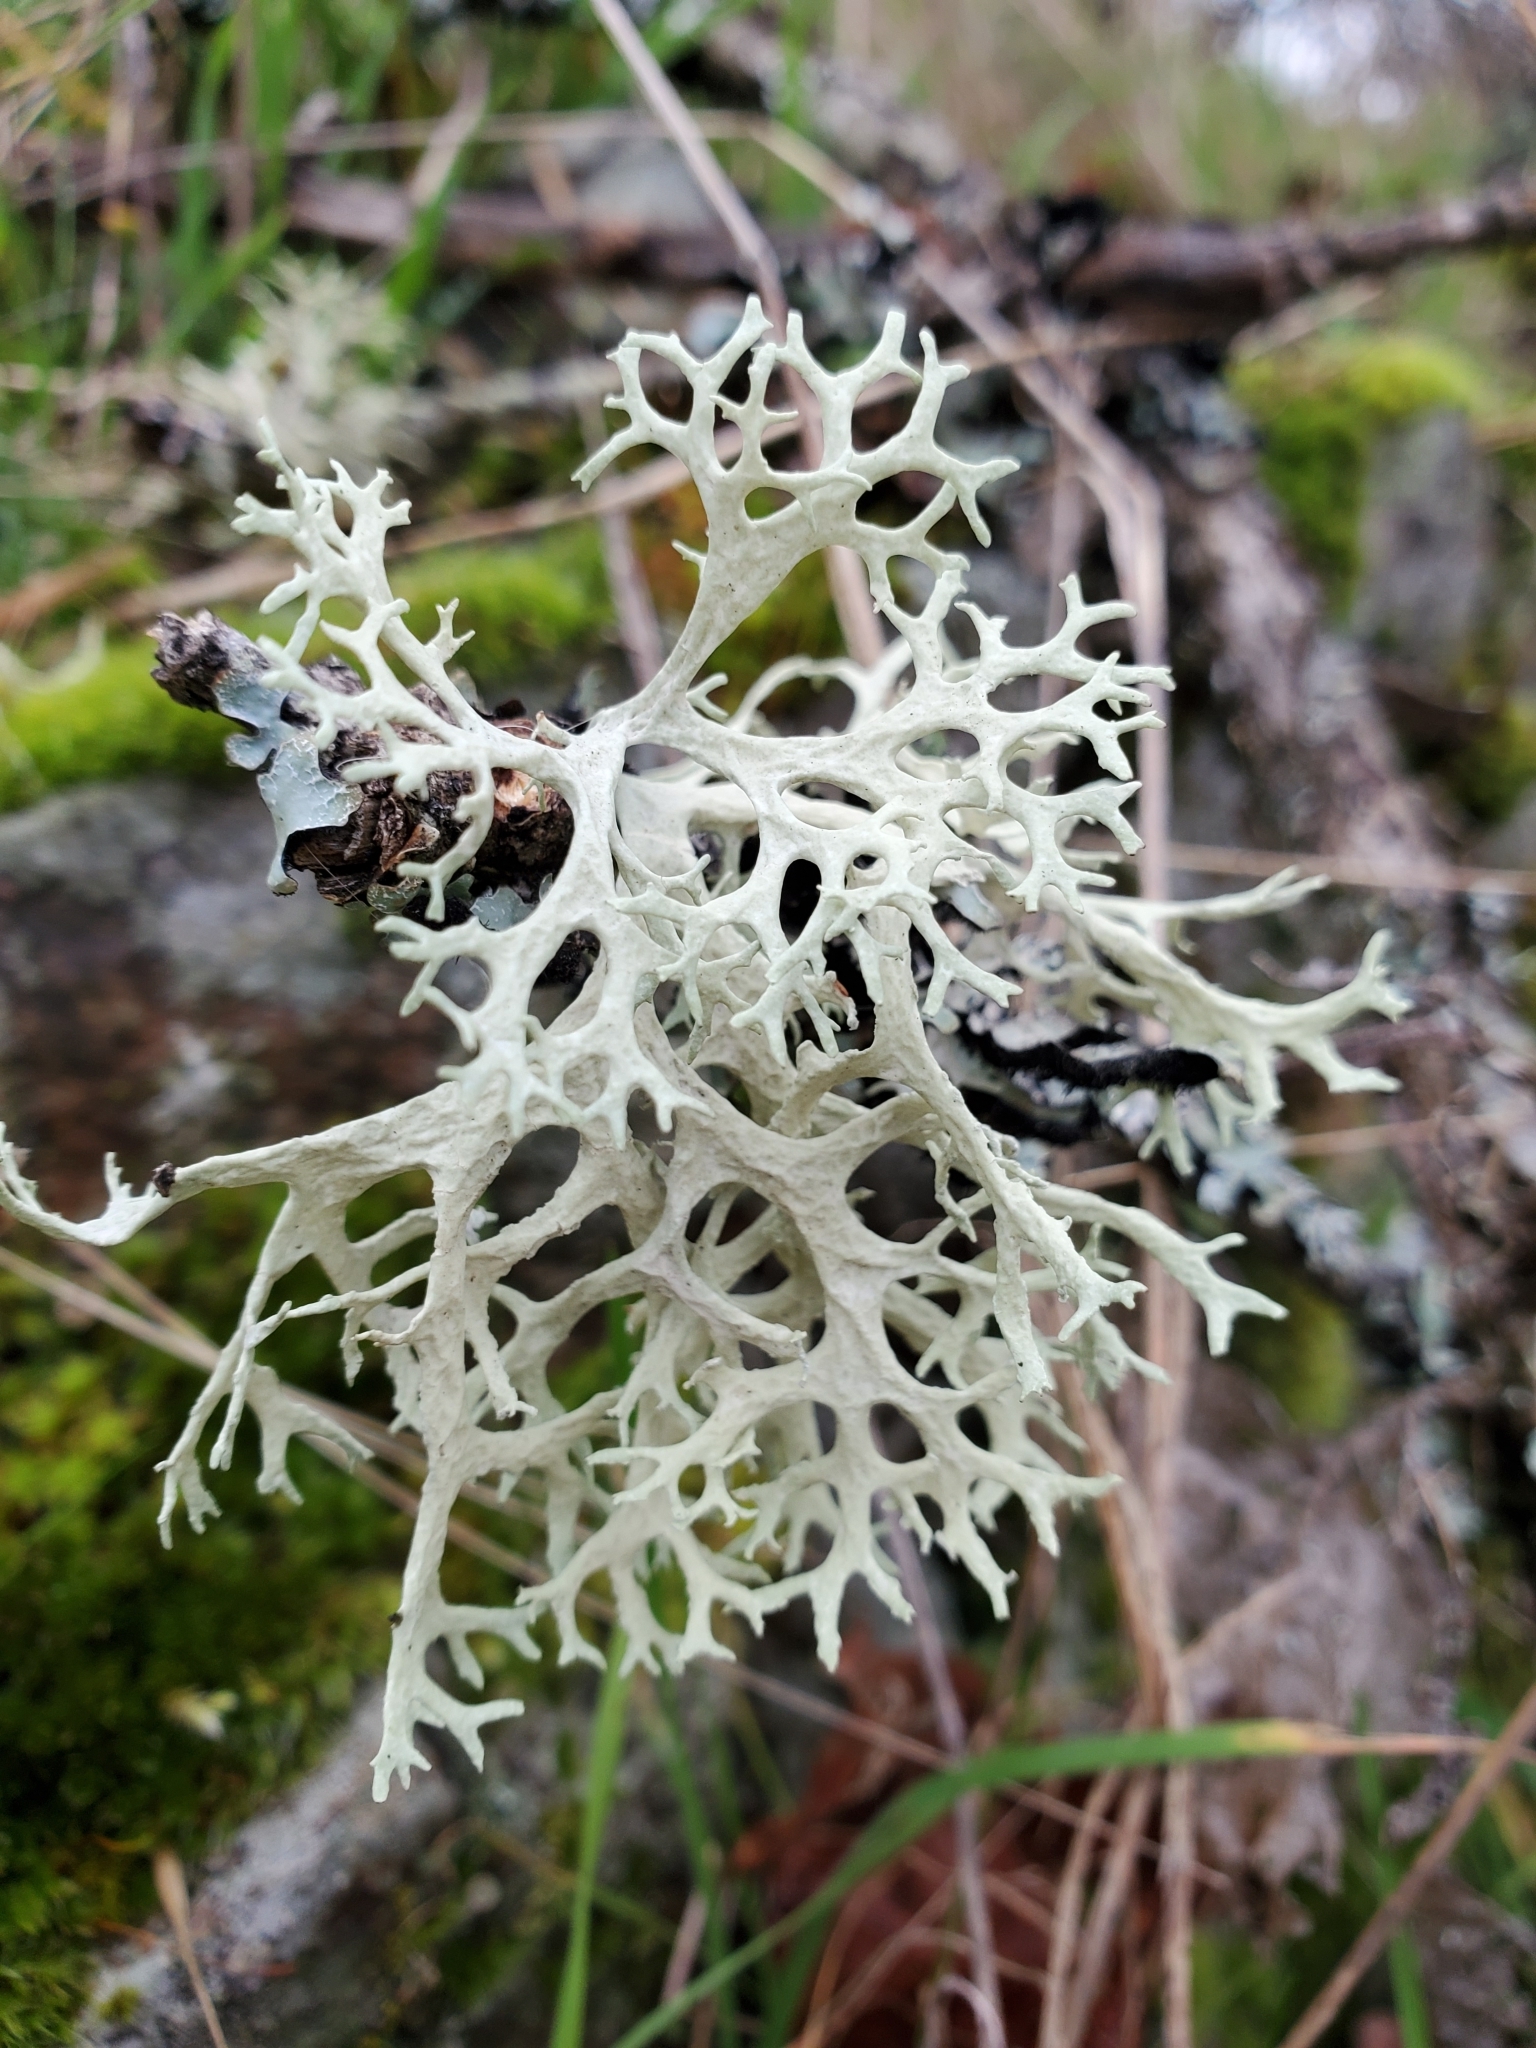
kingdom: Fungi
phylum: Ascomycota
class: Lecanoromycetes
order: Lecanorales
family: Parmeliaceae
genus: Evernia
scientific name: Evernia prunastri
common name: Oak moss
